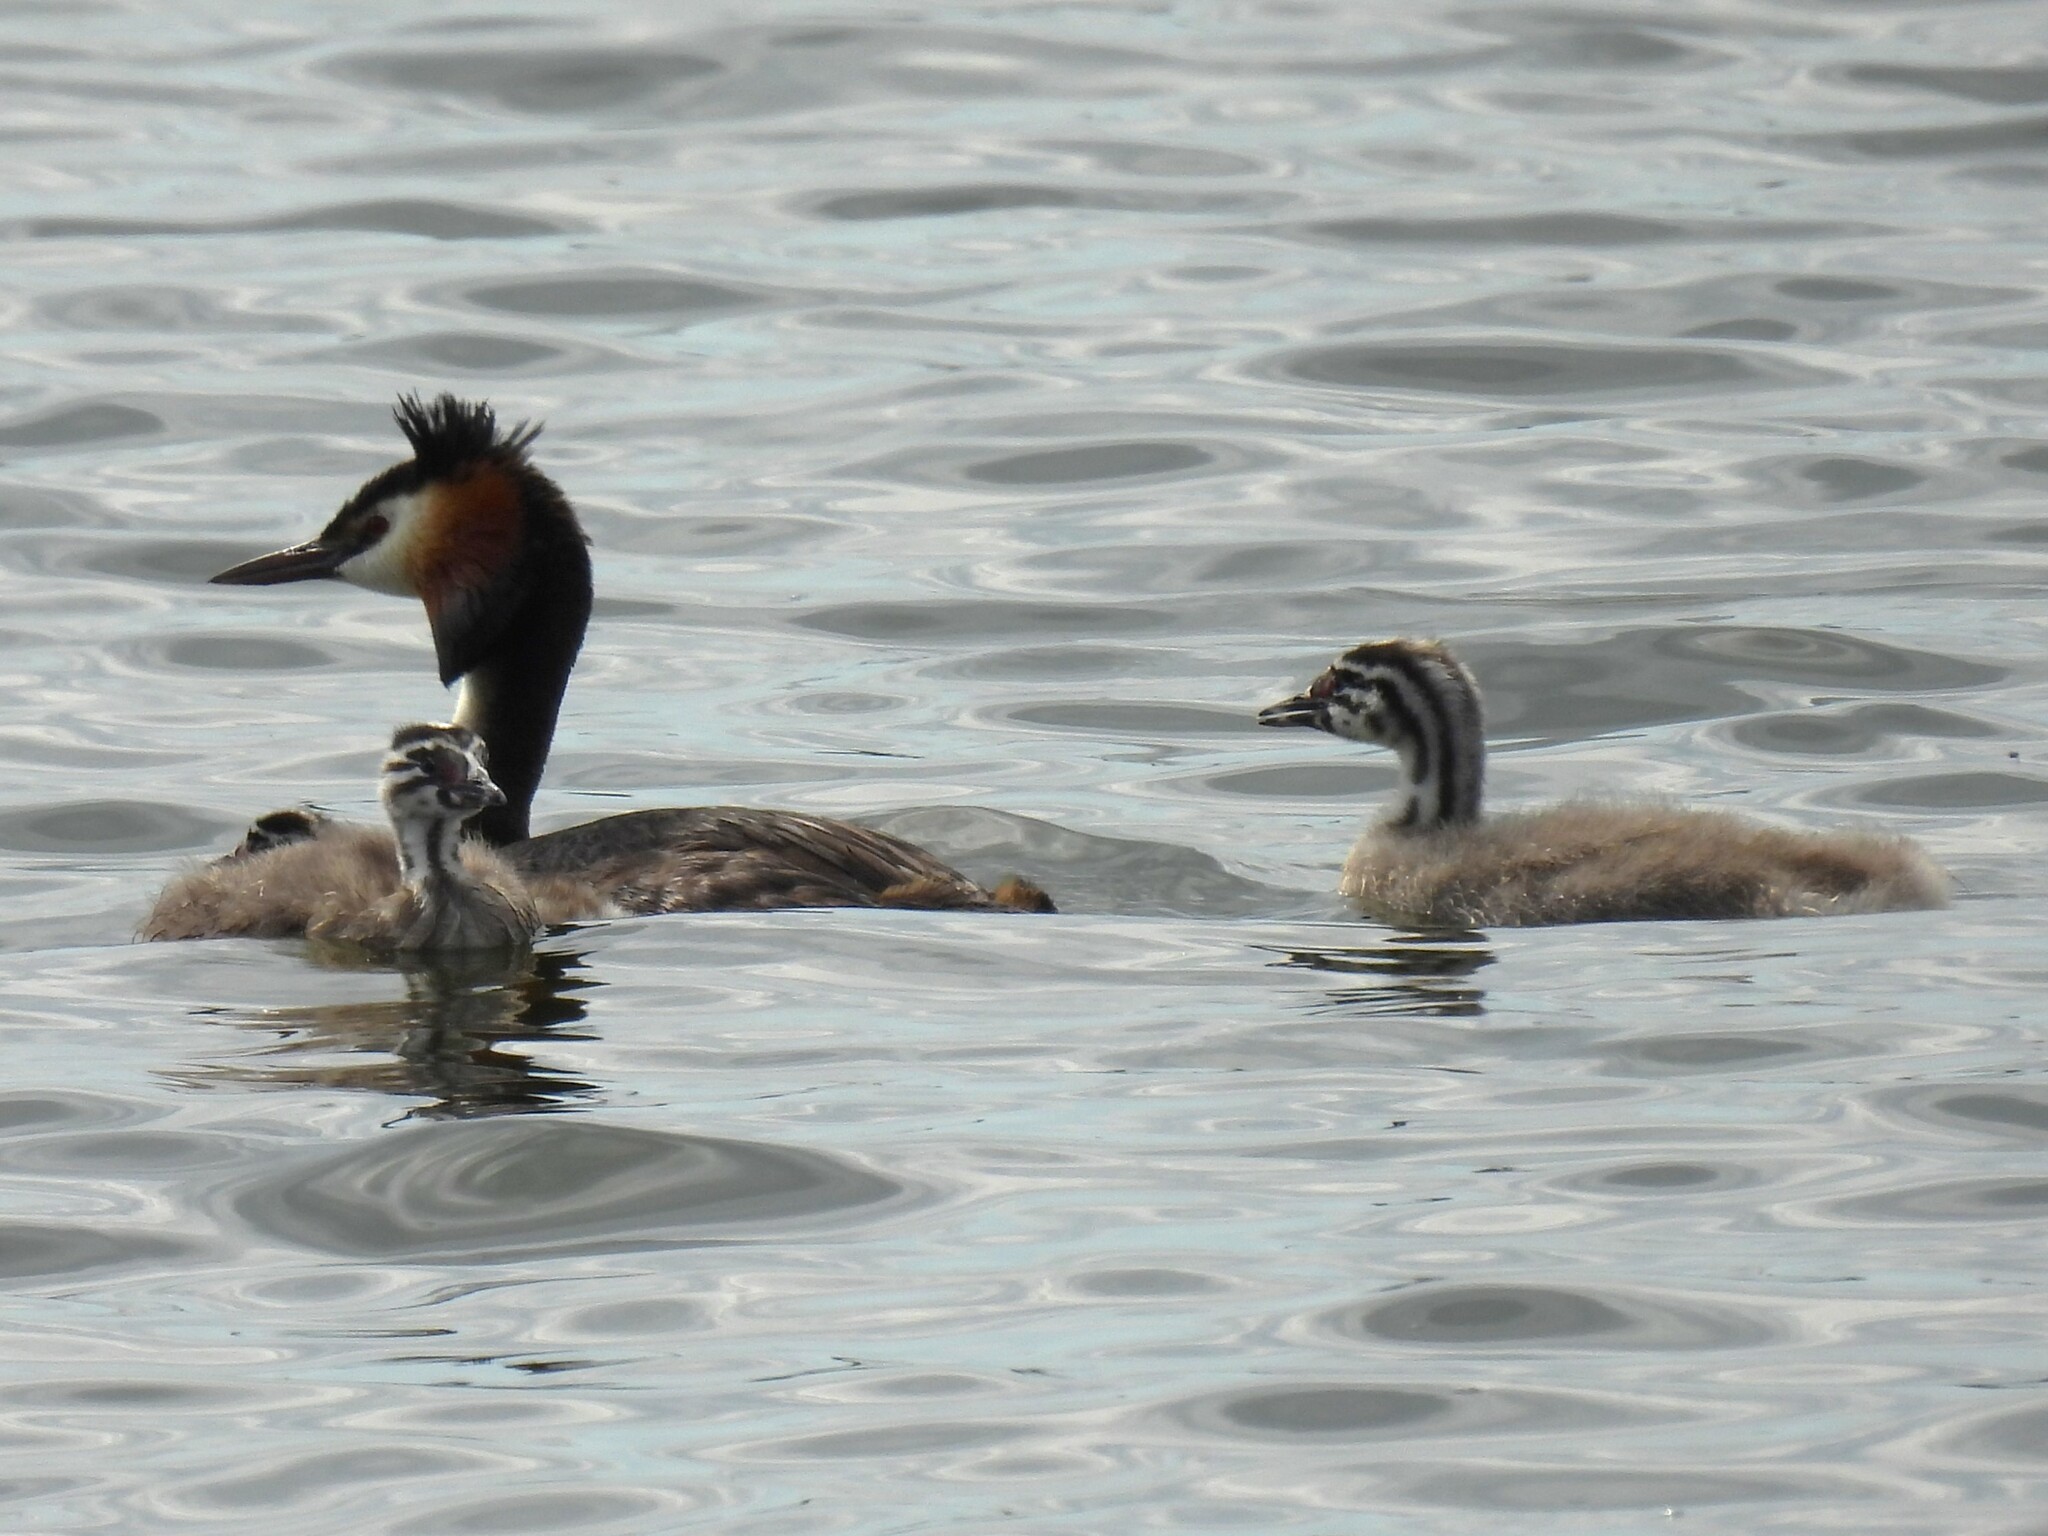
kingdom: Animalia
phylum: Chordata
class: Aves
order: Podicipediformes
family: Podicipedidae
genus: Podiceps
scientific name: Podiceps cristatus
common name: Great crested grebe
